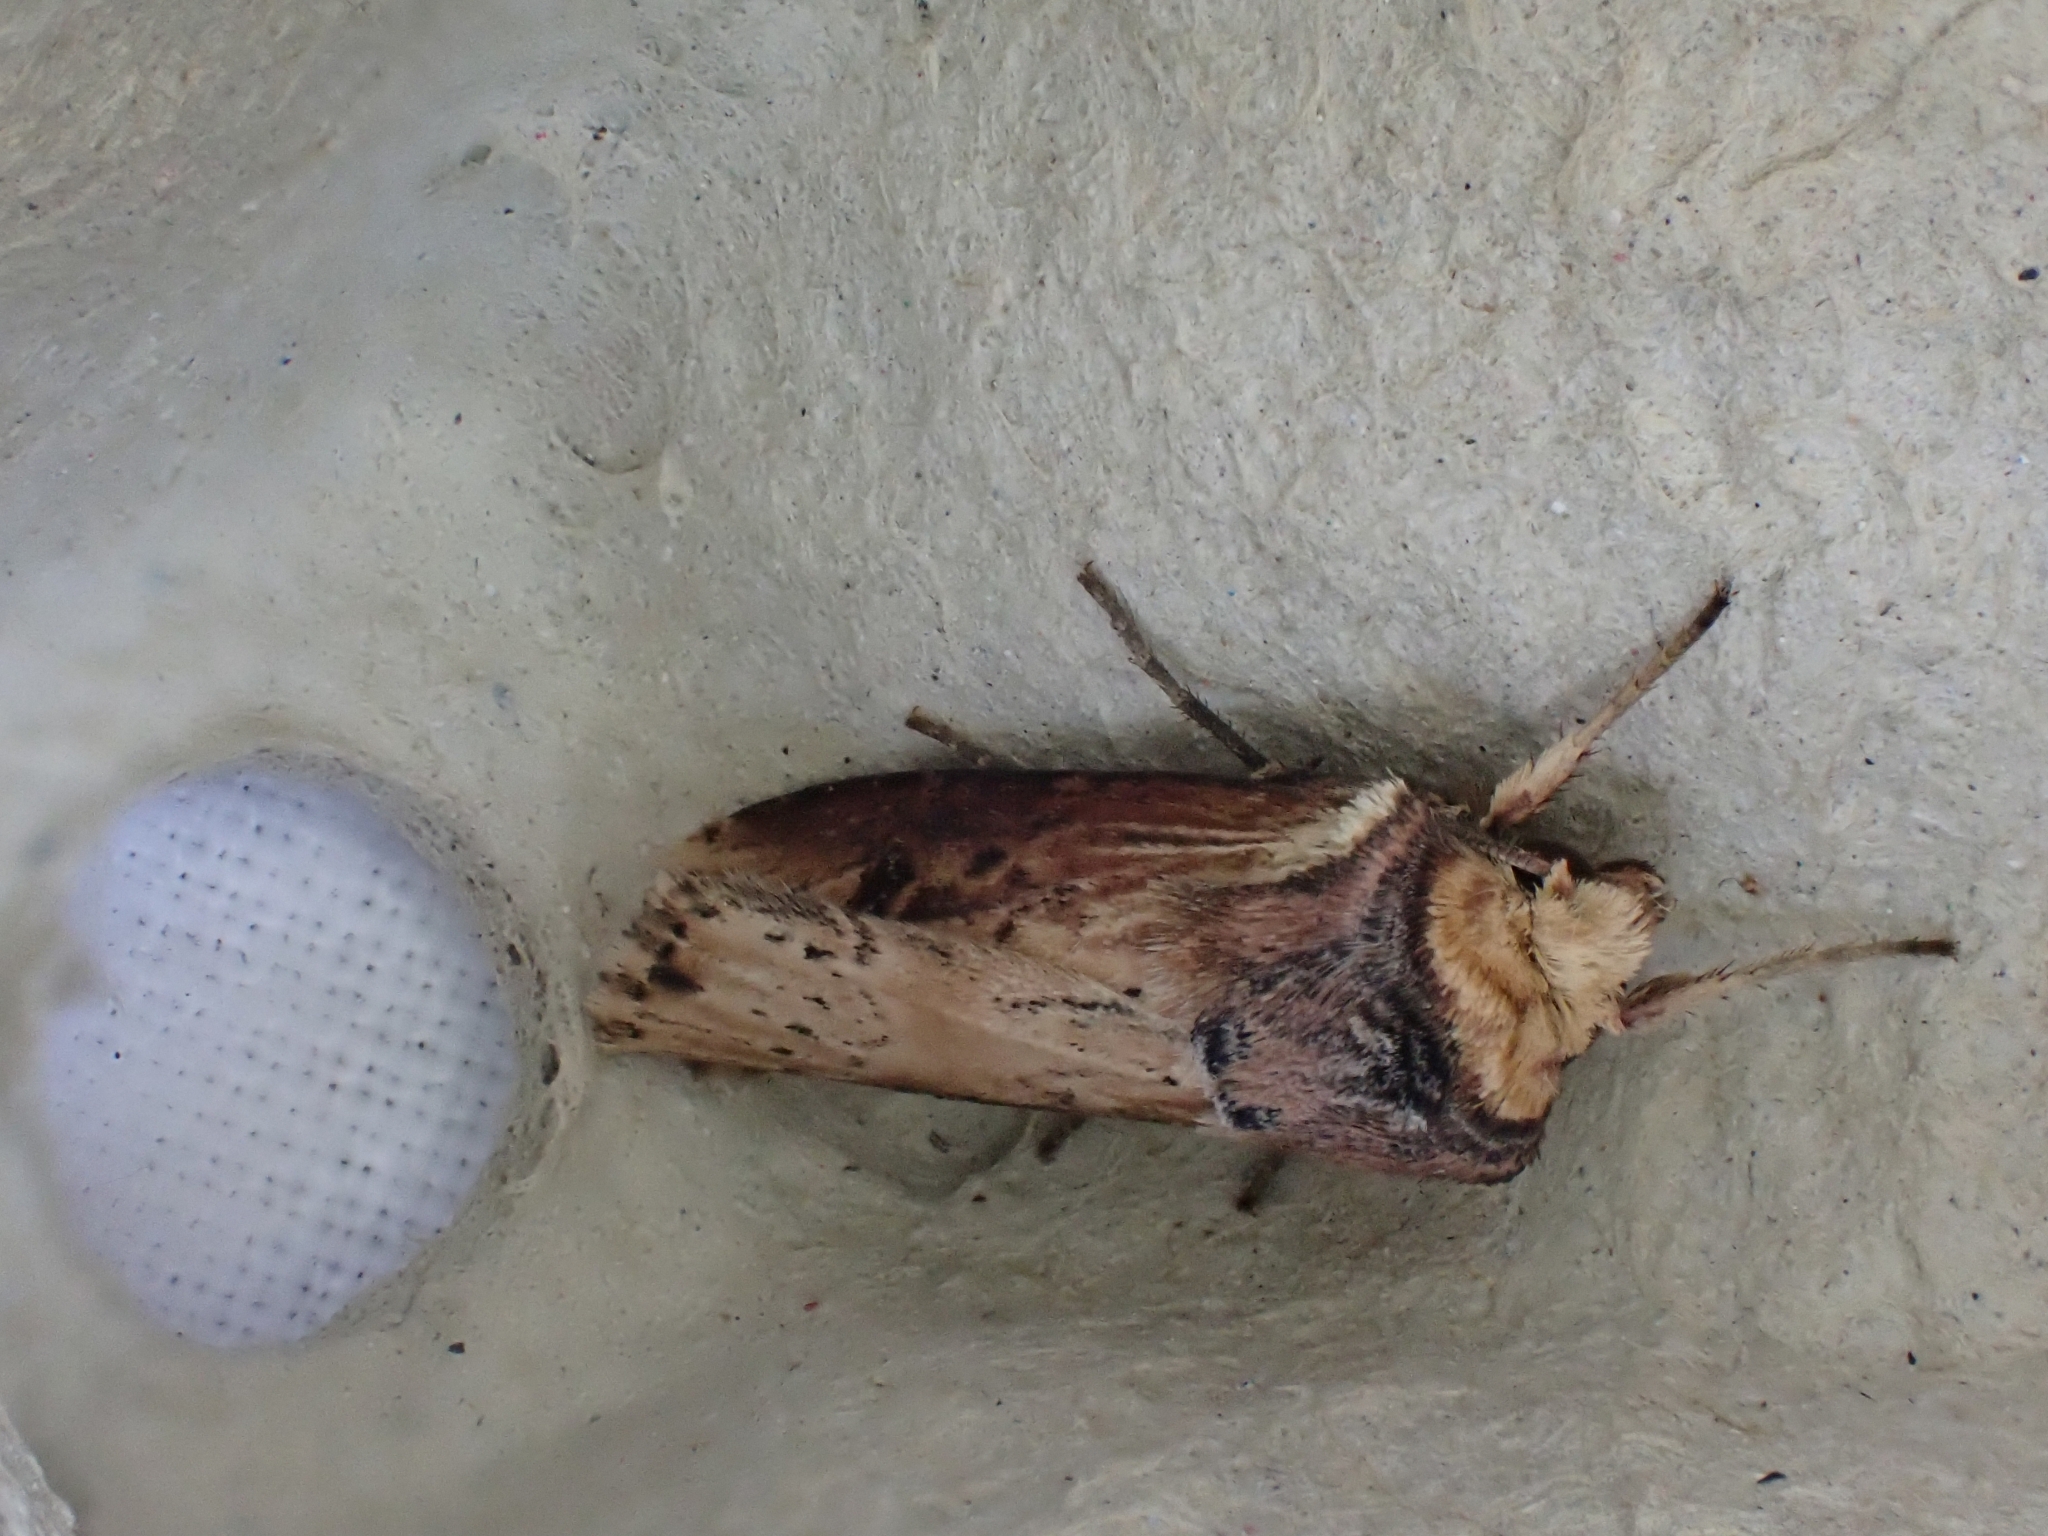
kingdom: Animalia
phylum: Arthropoda
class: Insecta
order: Lepidoptera
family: Noctuidae
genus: Axylia
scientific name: Axylia putris
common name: Flame
